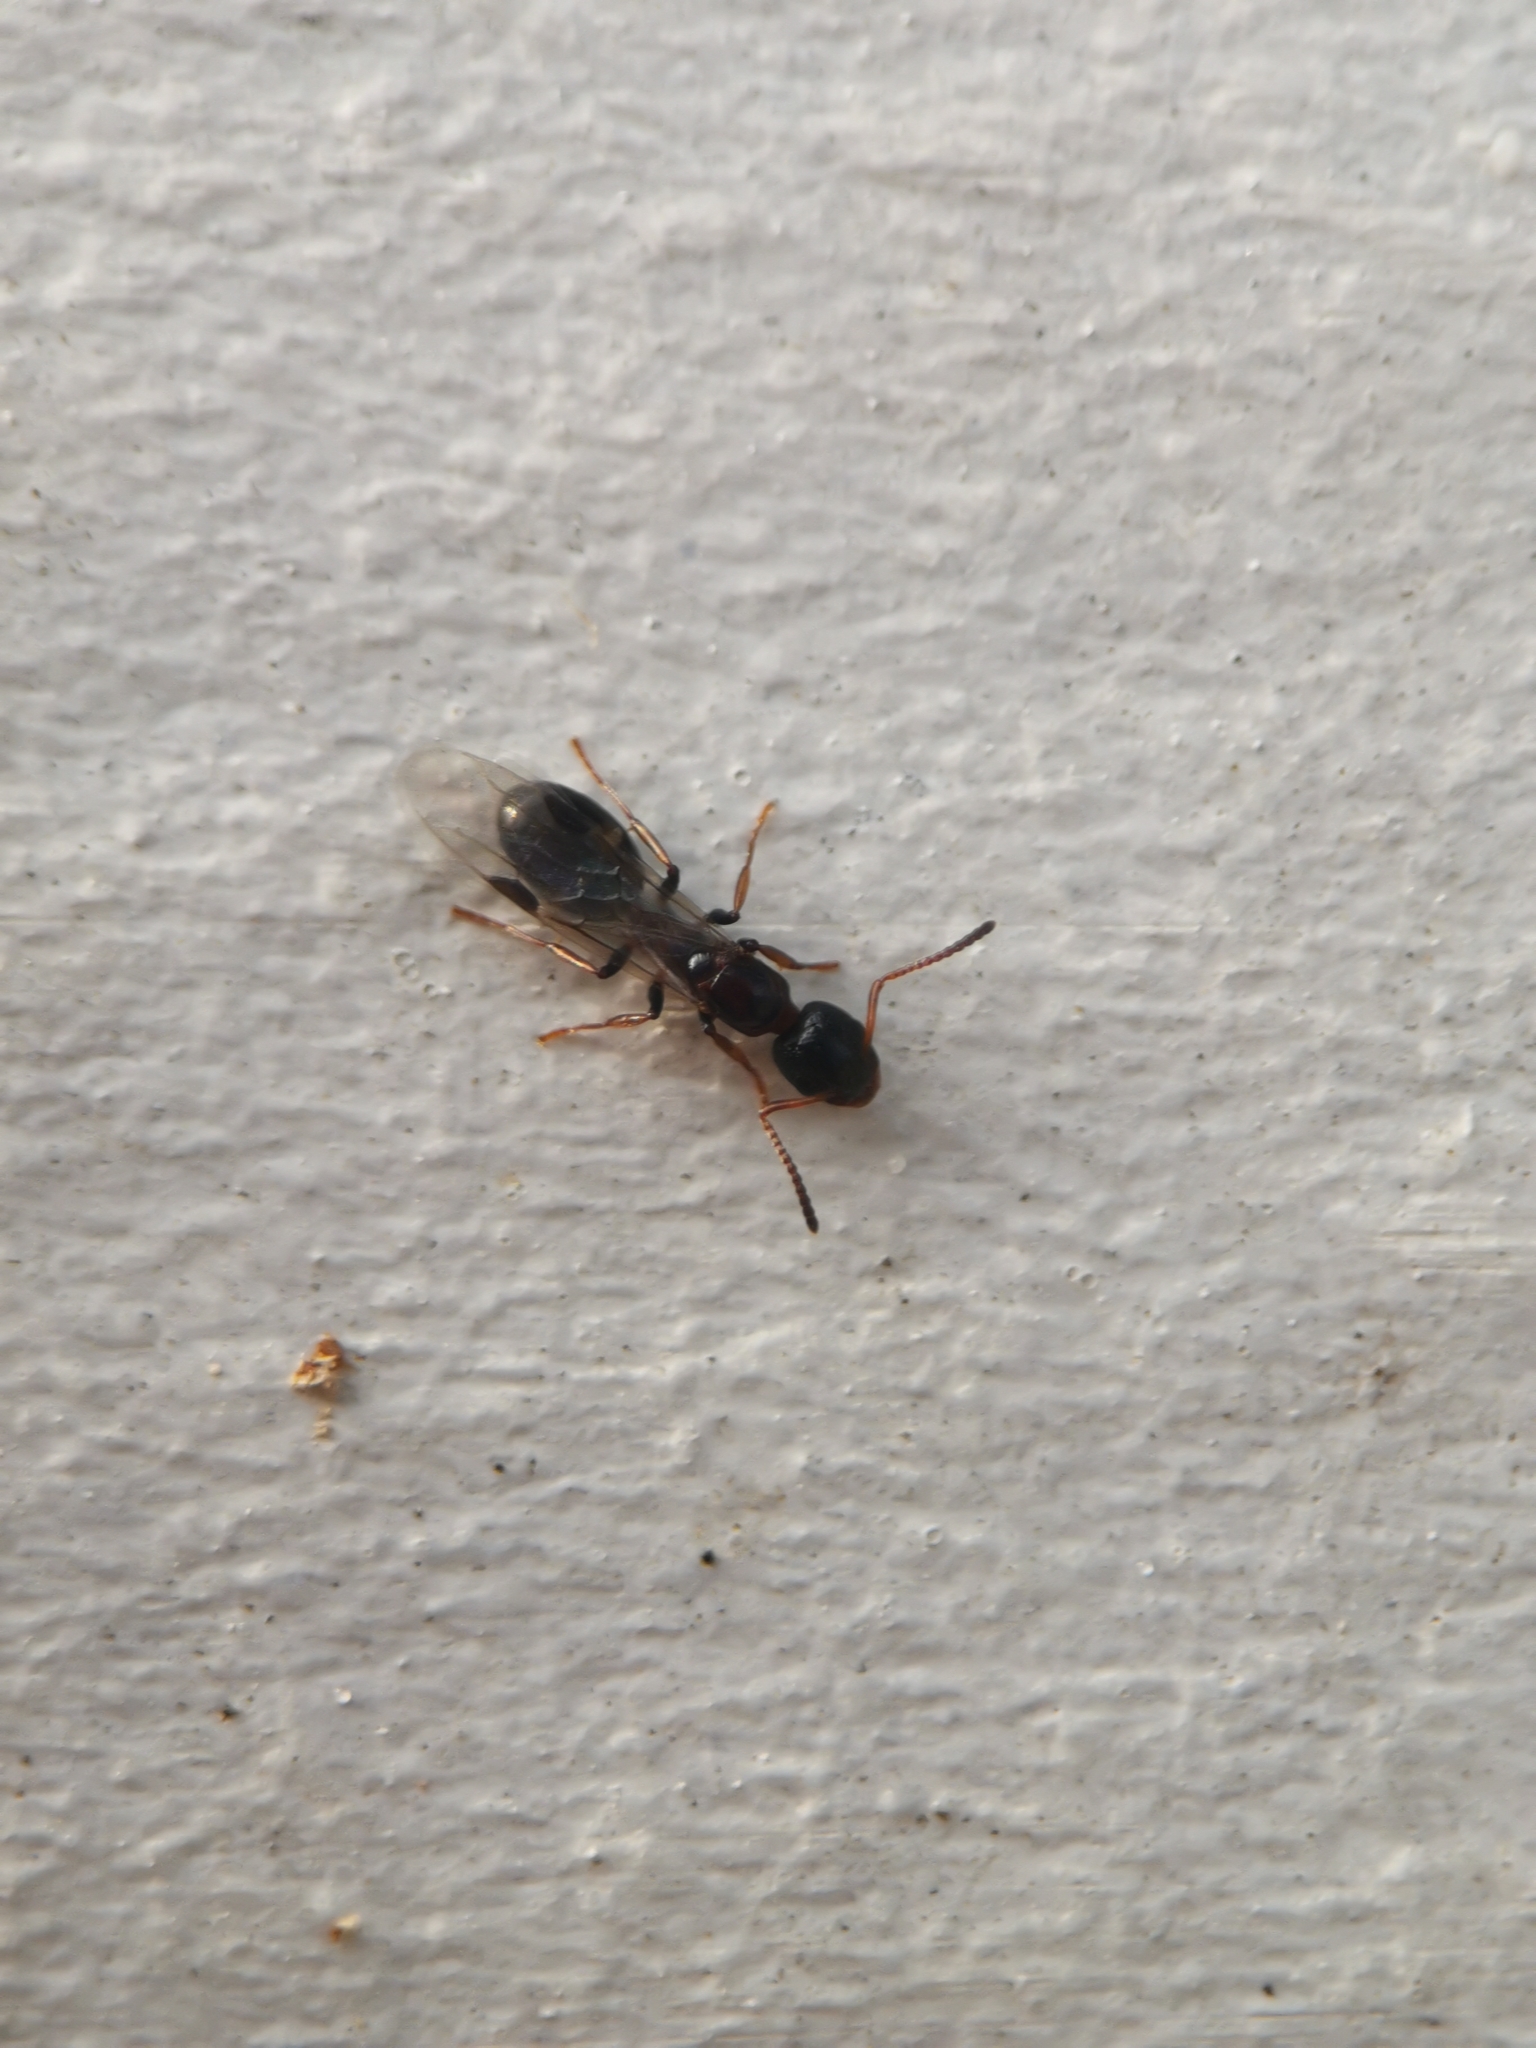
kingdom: Animalia
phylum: Arthropoda
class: Insecta
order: Hymenoptera
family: Formicidae
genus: Dolichoderus
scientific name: Dolichoderus quadripunctatus
